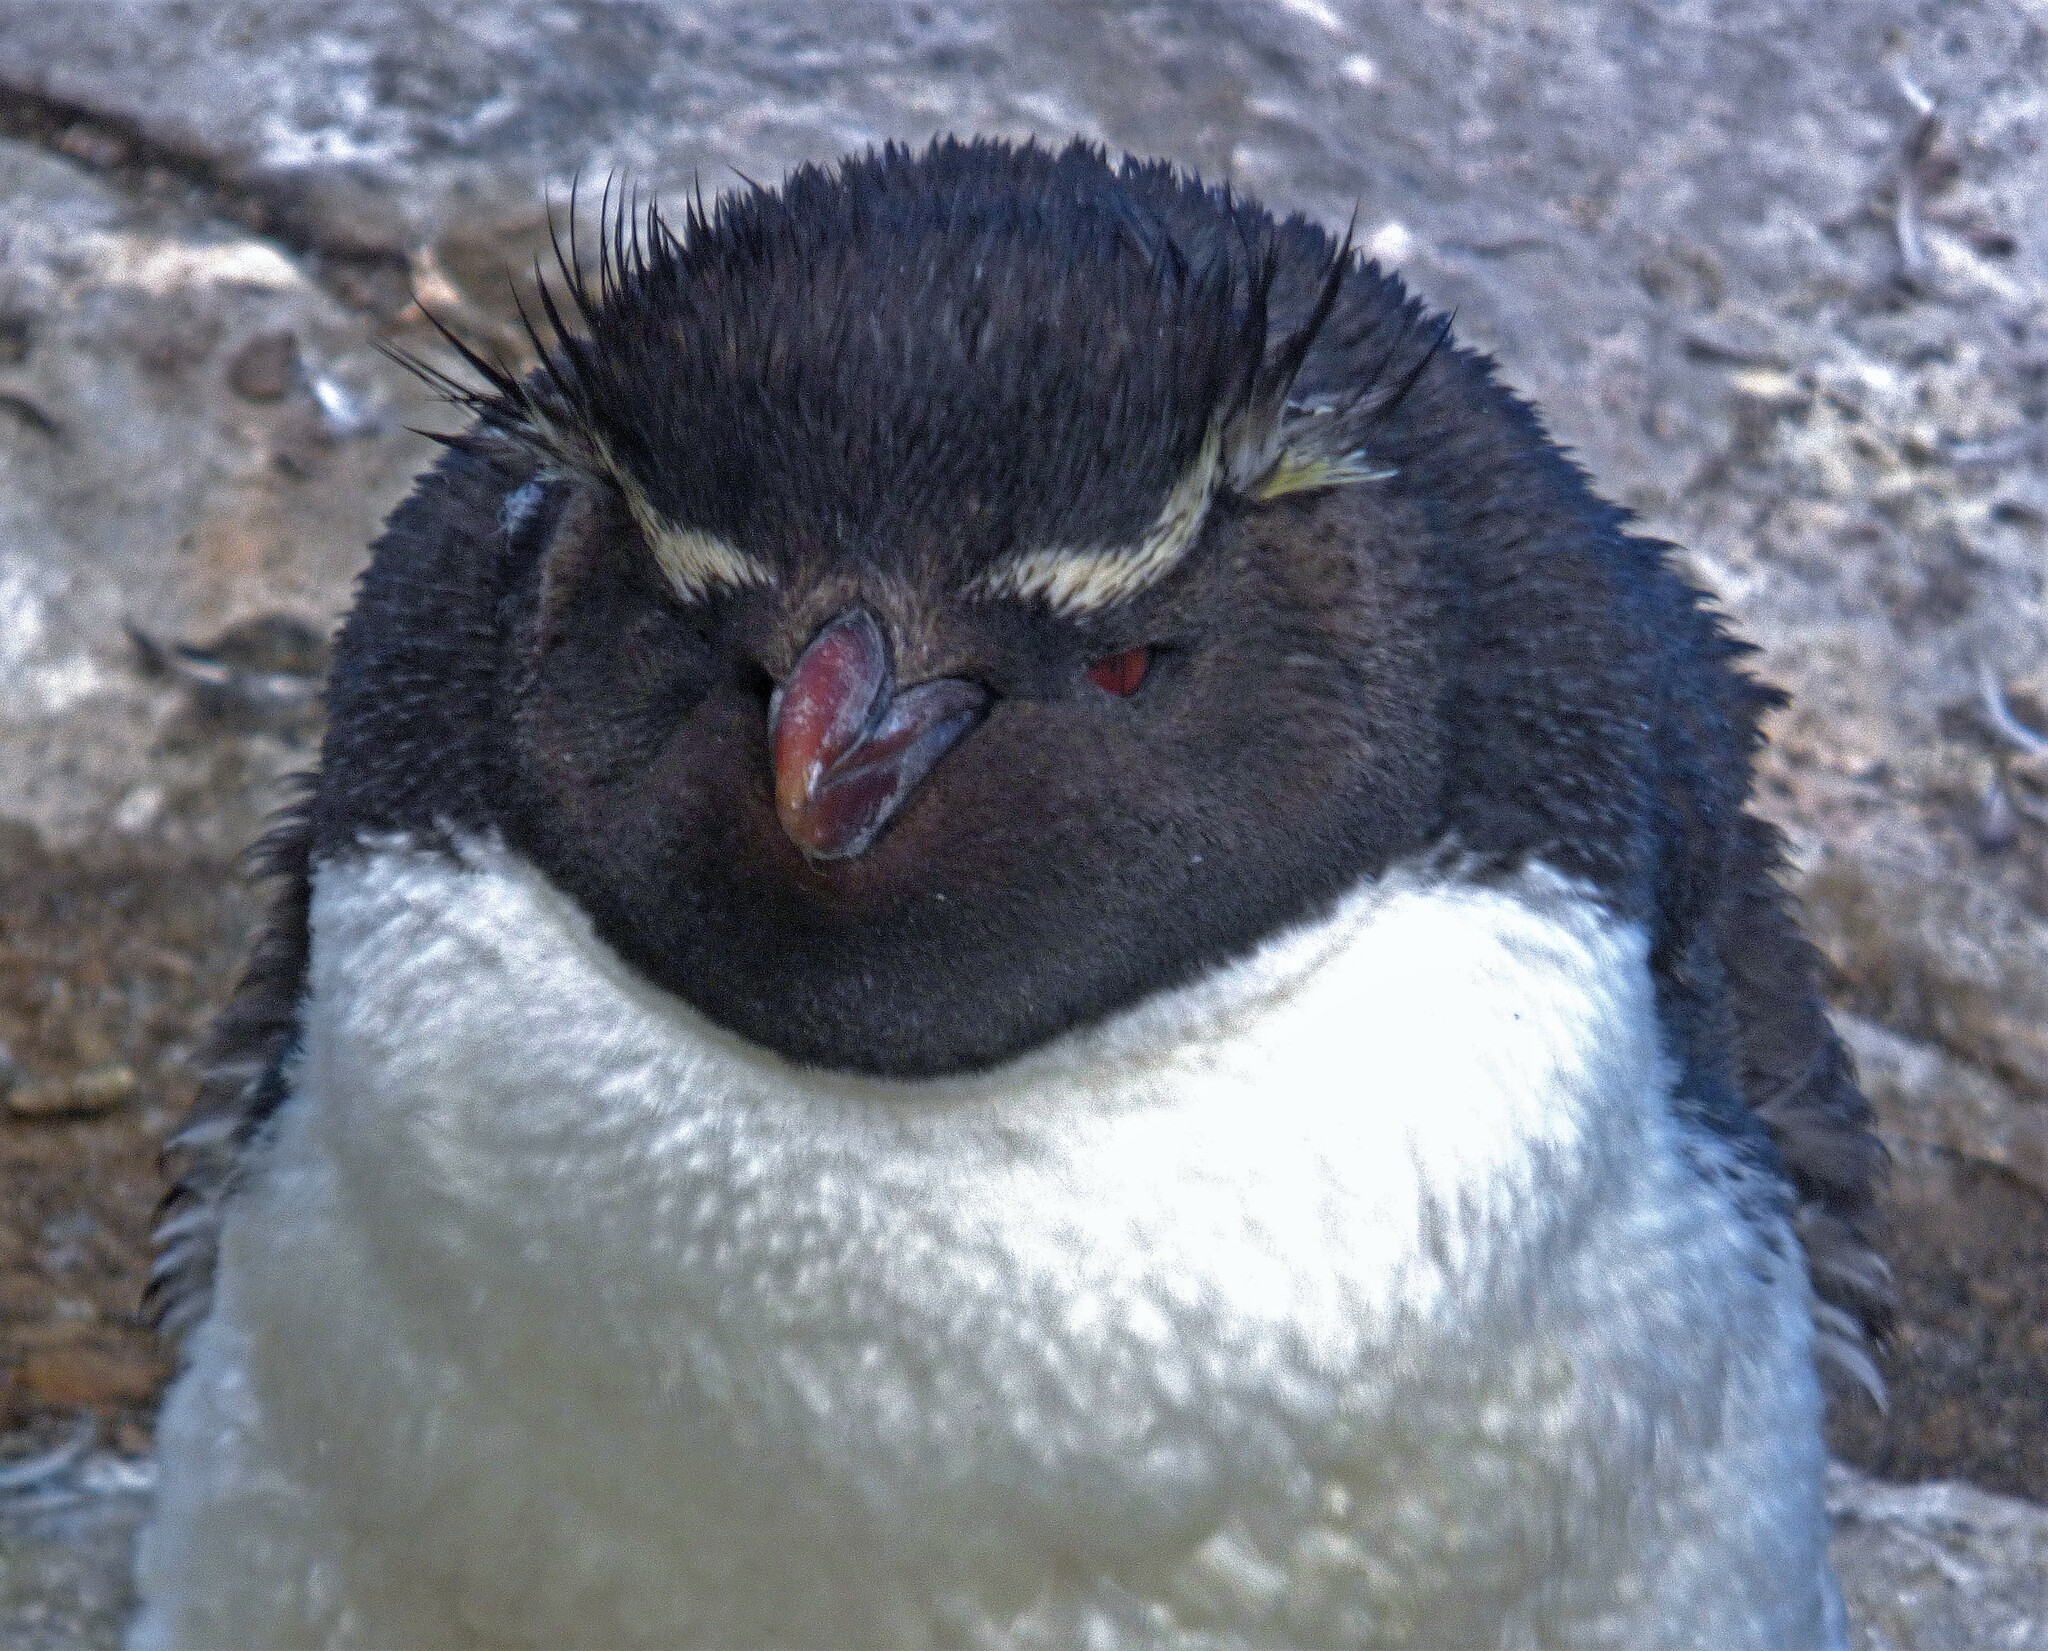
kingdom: Animalia
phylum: Chordata
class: Aves
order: Sphenisciformes
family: Spheniscidae
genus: Eudyptes
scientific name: Eudyptes chrysocome
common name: Southern rockhopper penguin
